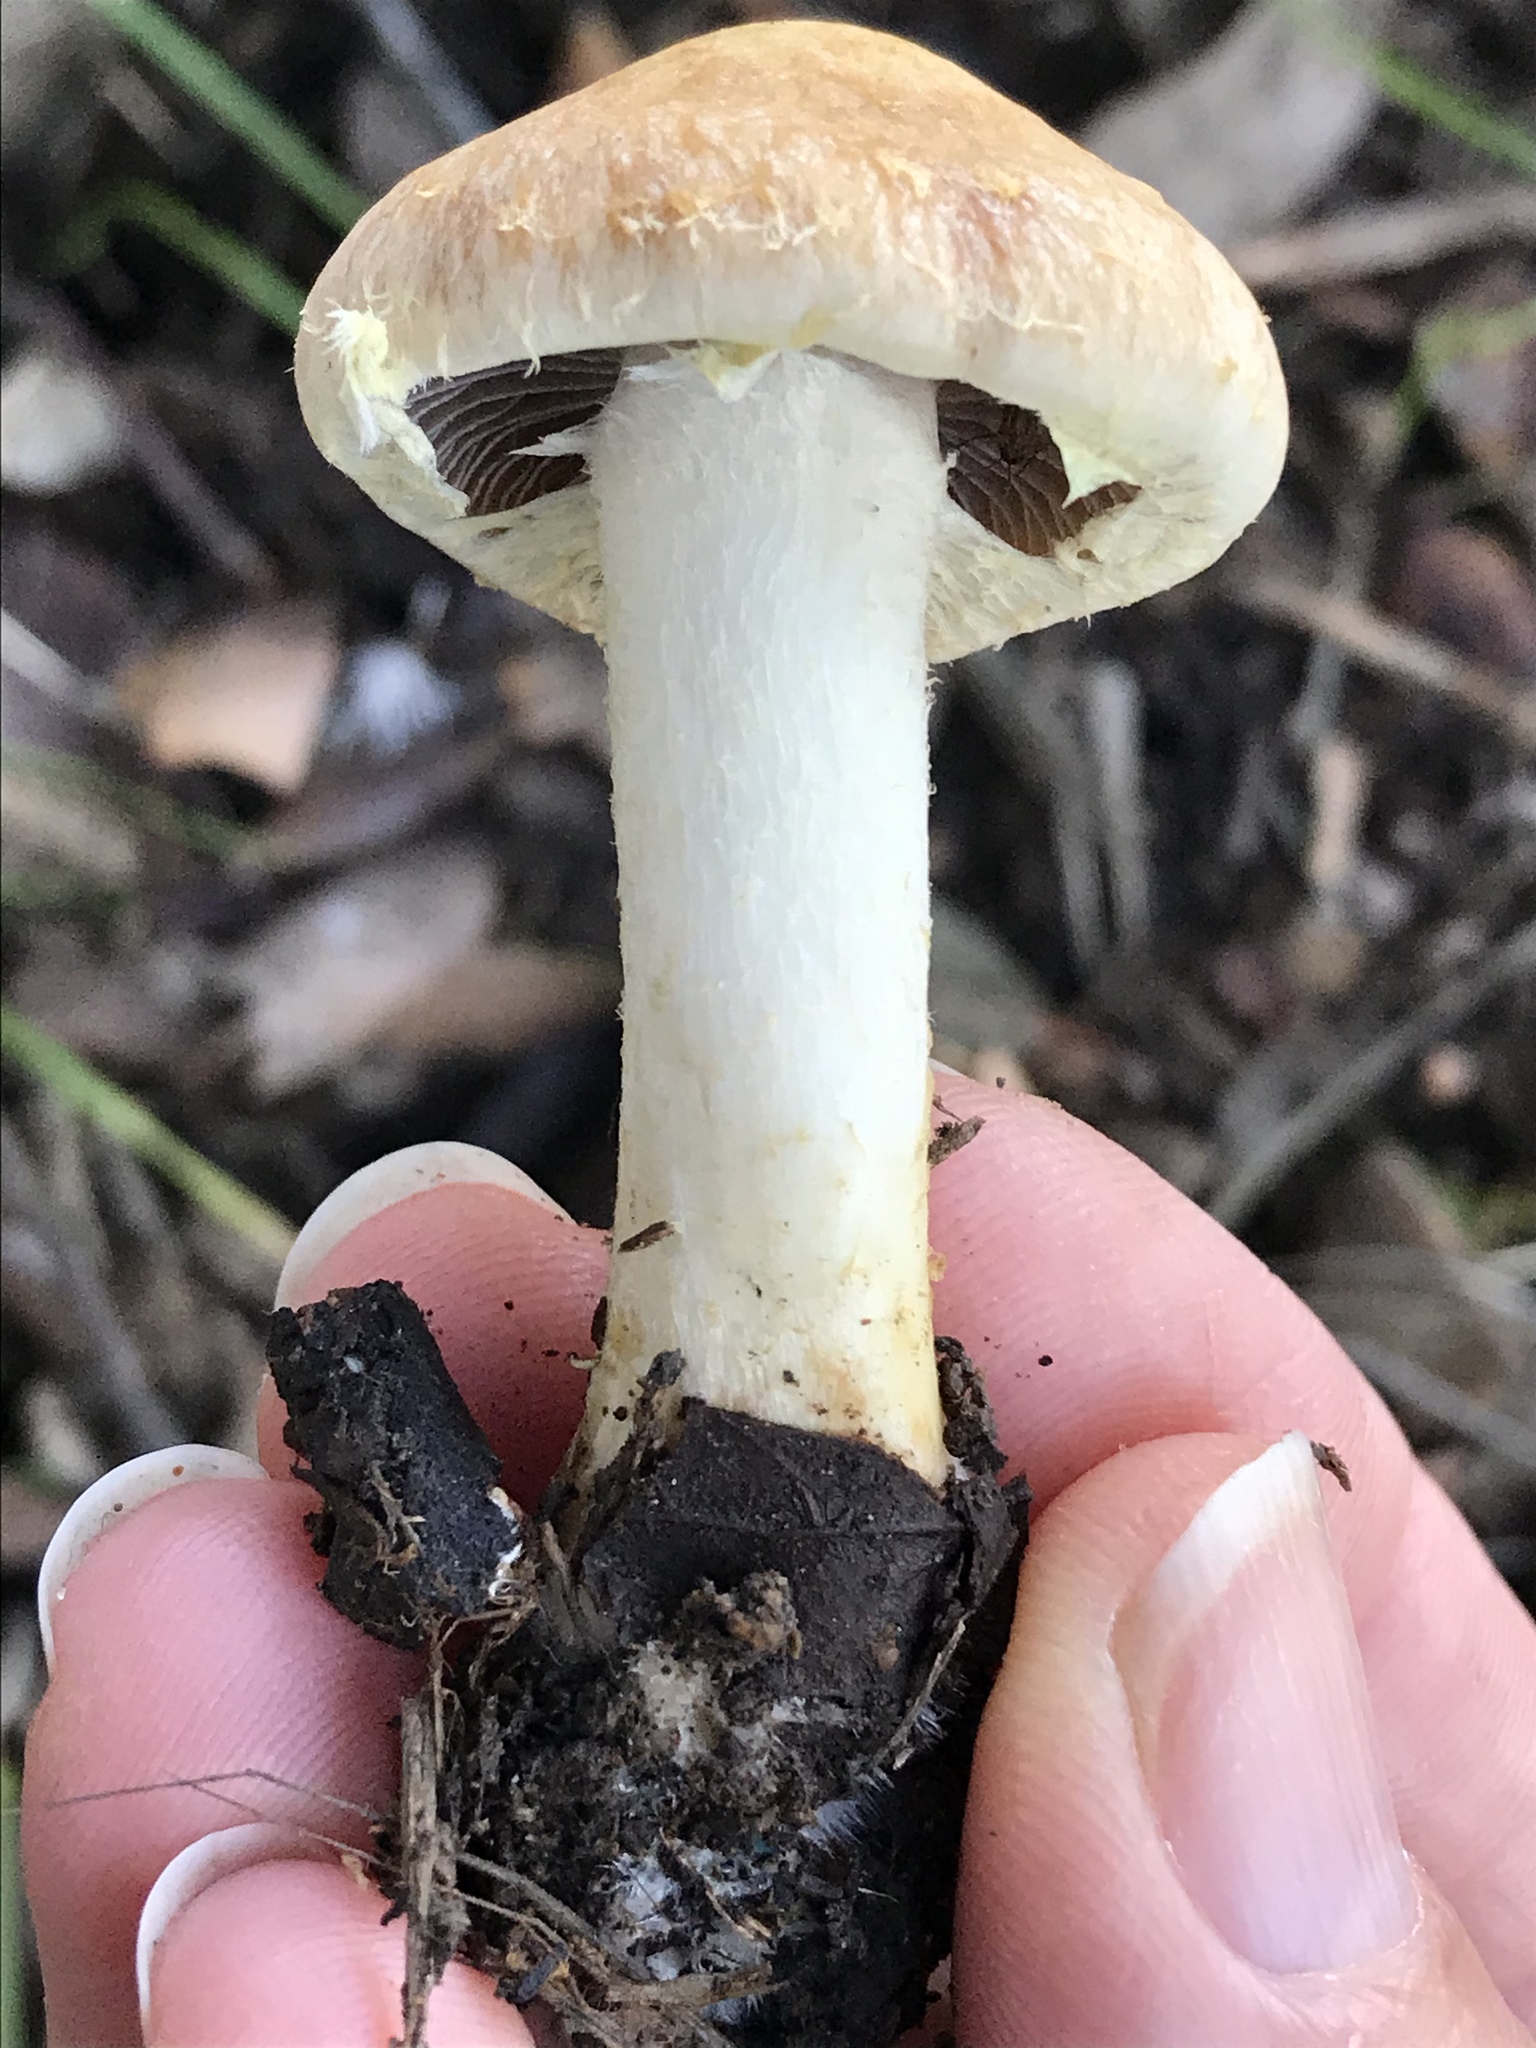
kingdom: Fungi
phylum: Basidiomycota
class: Agaricomycetes
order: Agaricales
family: Strophariaceae
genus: Leratiomyces
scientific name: Leratiomyces percevalii
